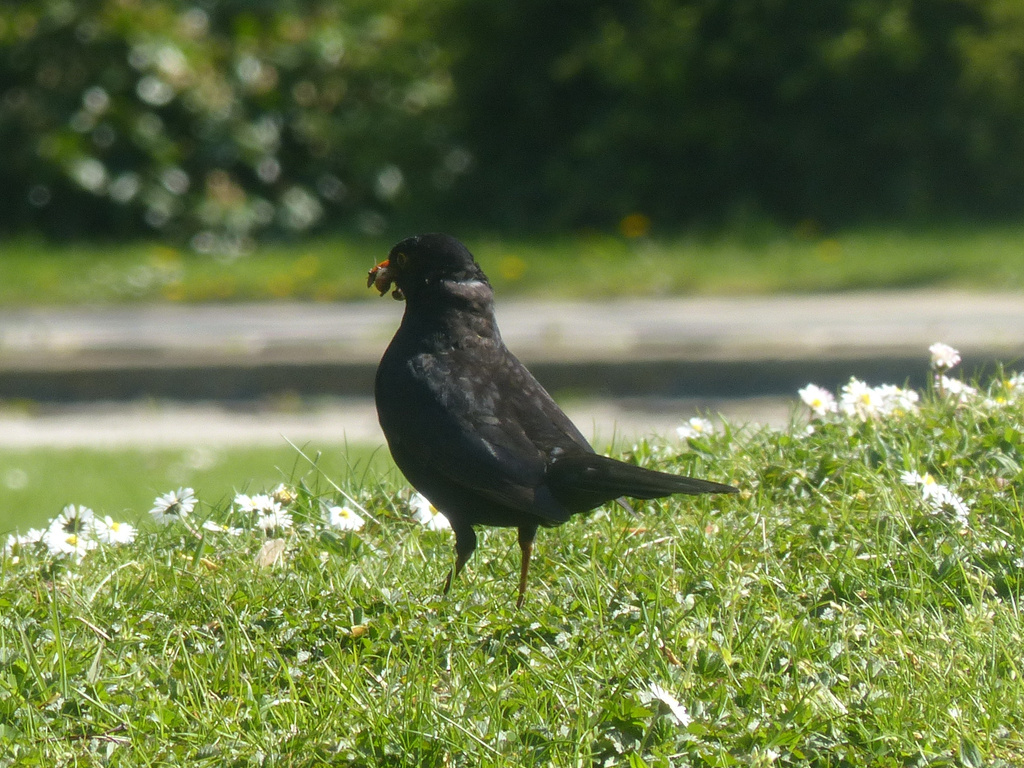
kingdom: Animalia
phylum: Chordata
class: Aves
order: Passeriformes
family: Turdidae
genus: Turdus
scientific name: Turdus merula
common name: Common blackbird
